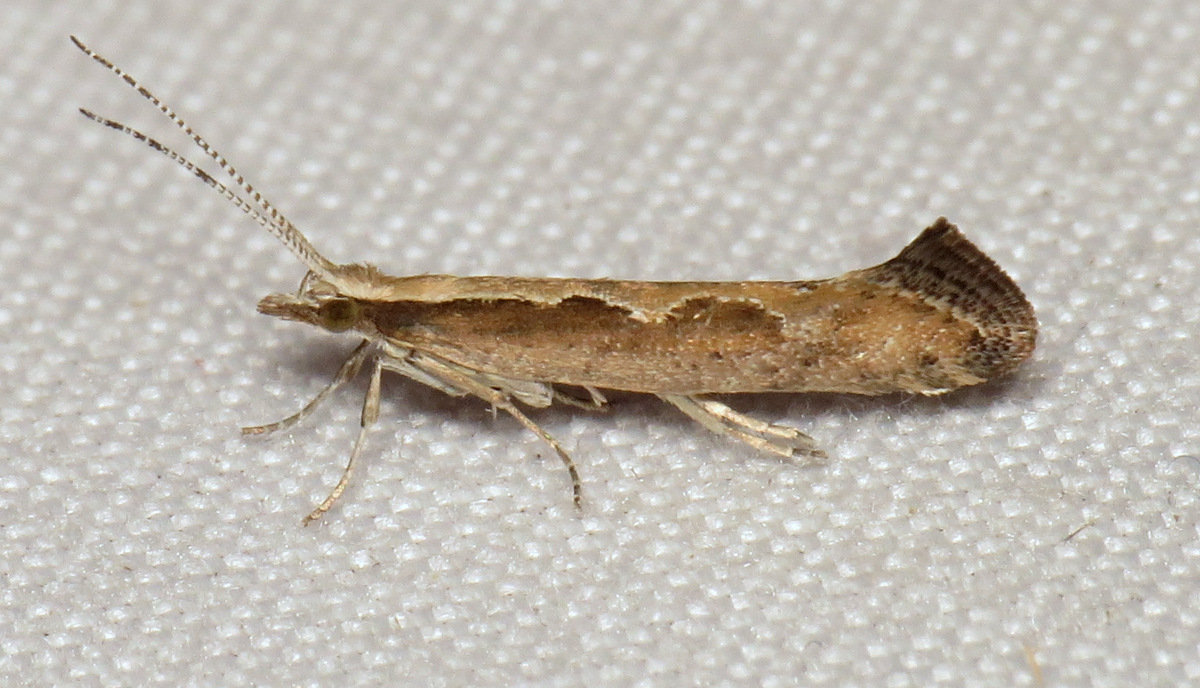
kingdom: Animalia
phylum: Arthropoda
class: Insecta
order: Lepidoptera
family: Plutellidae
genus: Plutella
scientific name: Plutella xylostella
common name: Diamond-back moth
